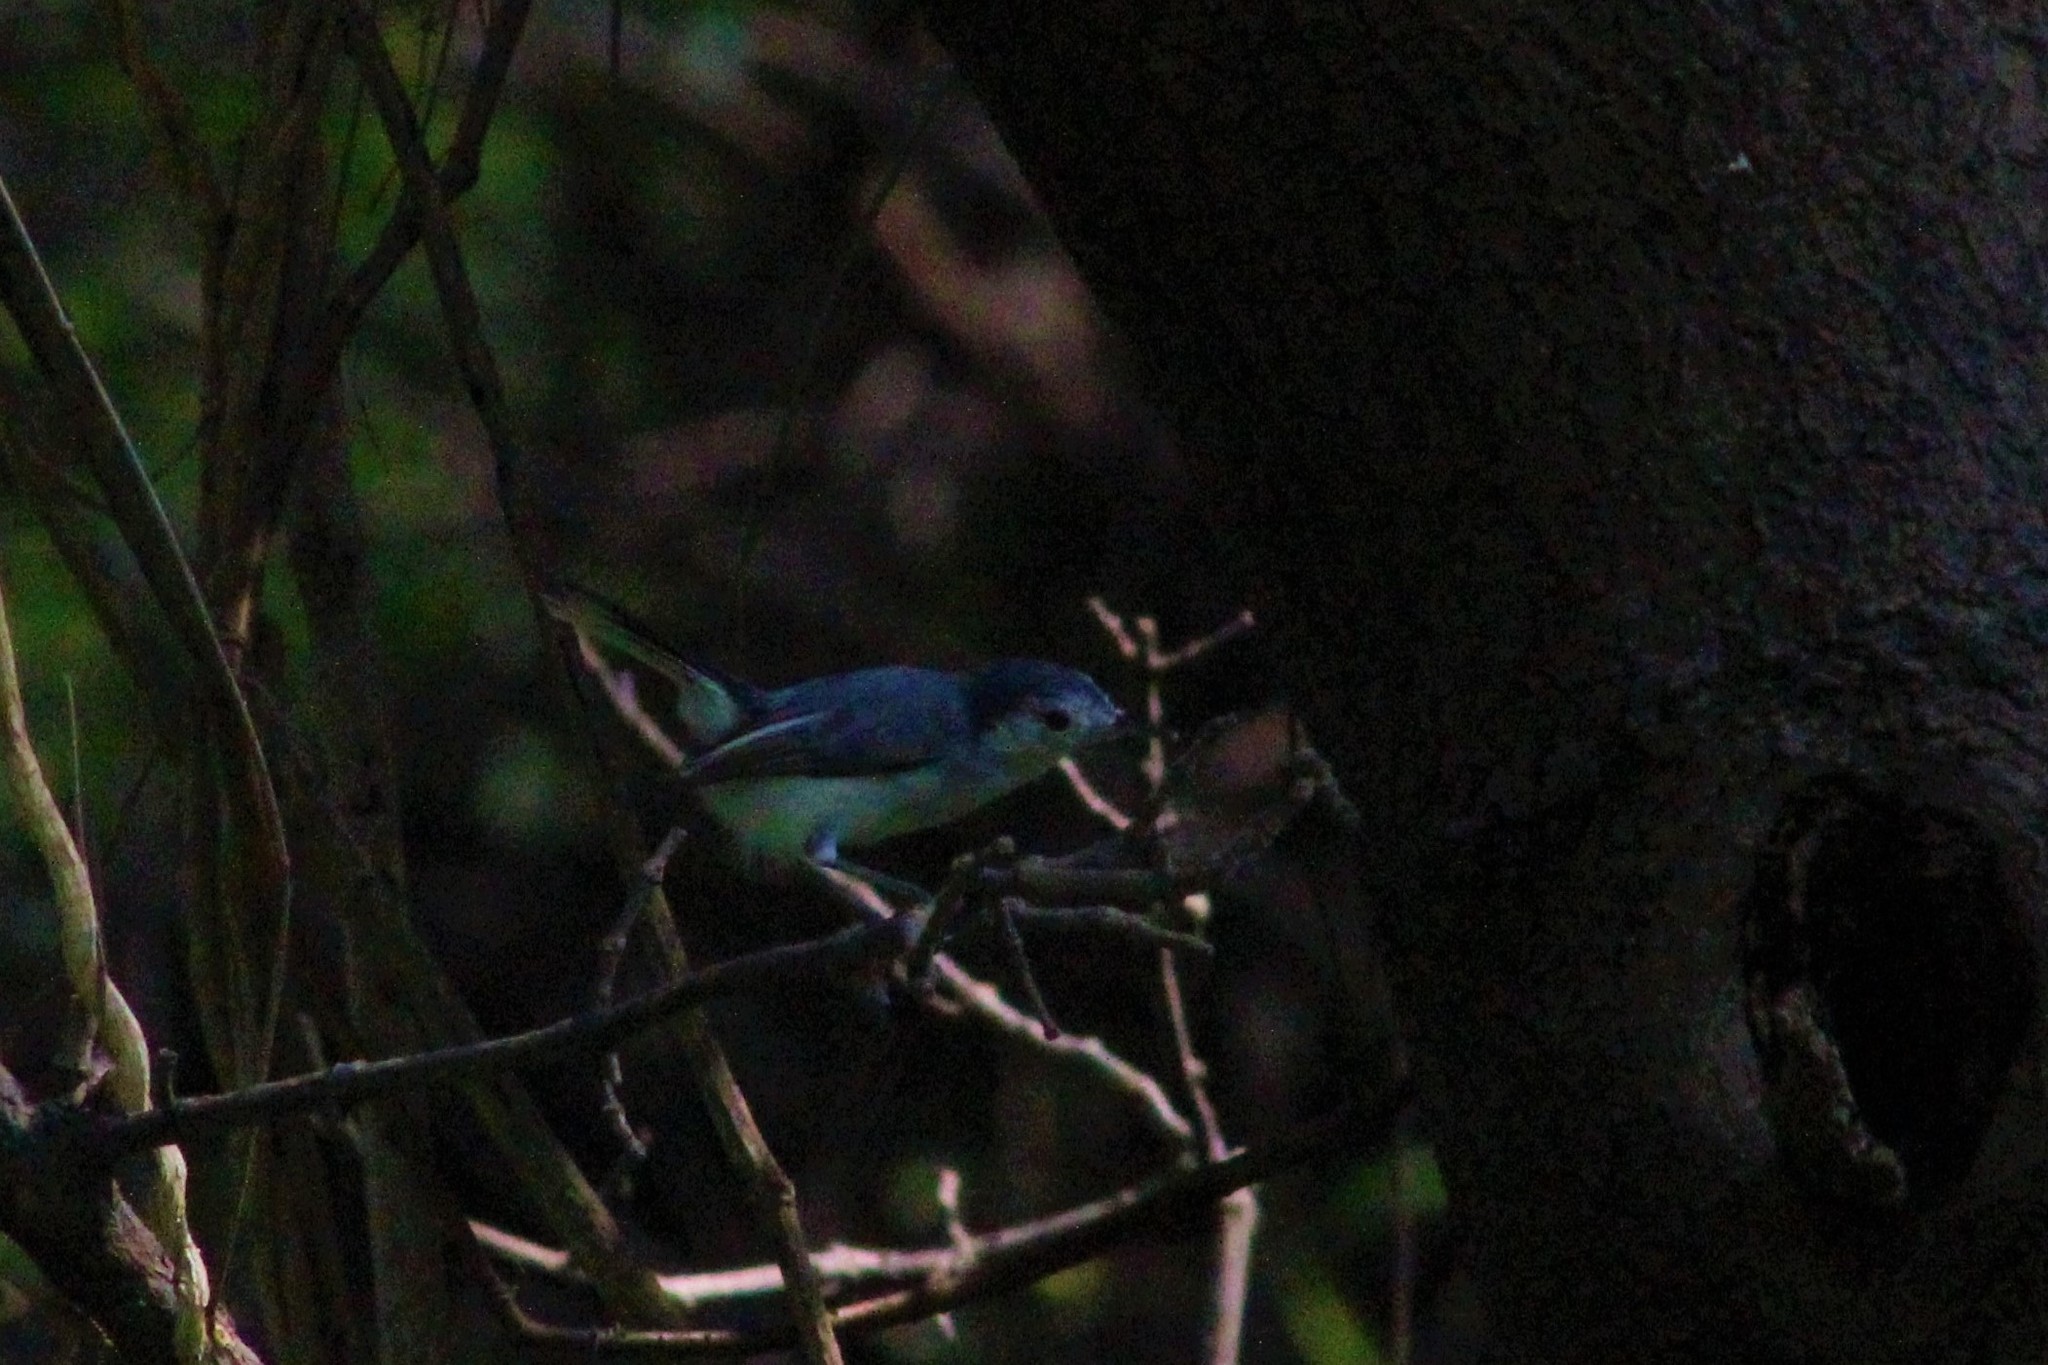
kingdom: Animalia
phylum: Chordata
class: Aves
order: Passeriformes
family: Polioptilidae
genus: Polioptila
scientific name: Polioptila plumbea
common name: Tropical gnatcatcher
